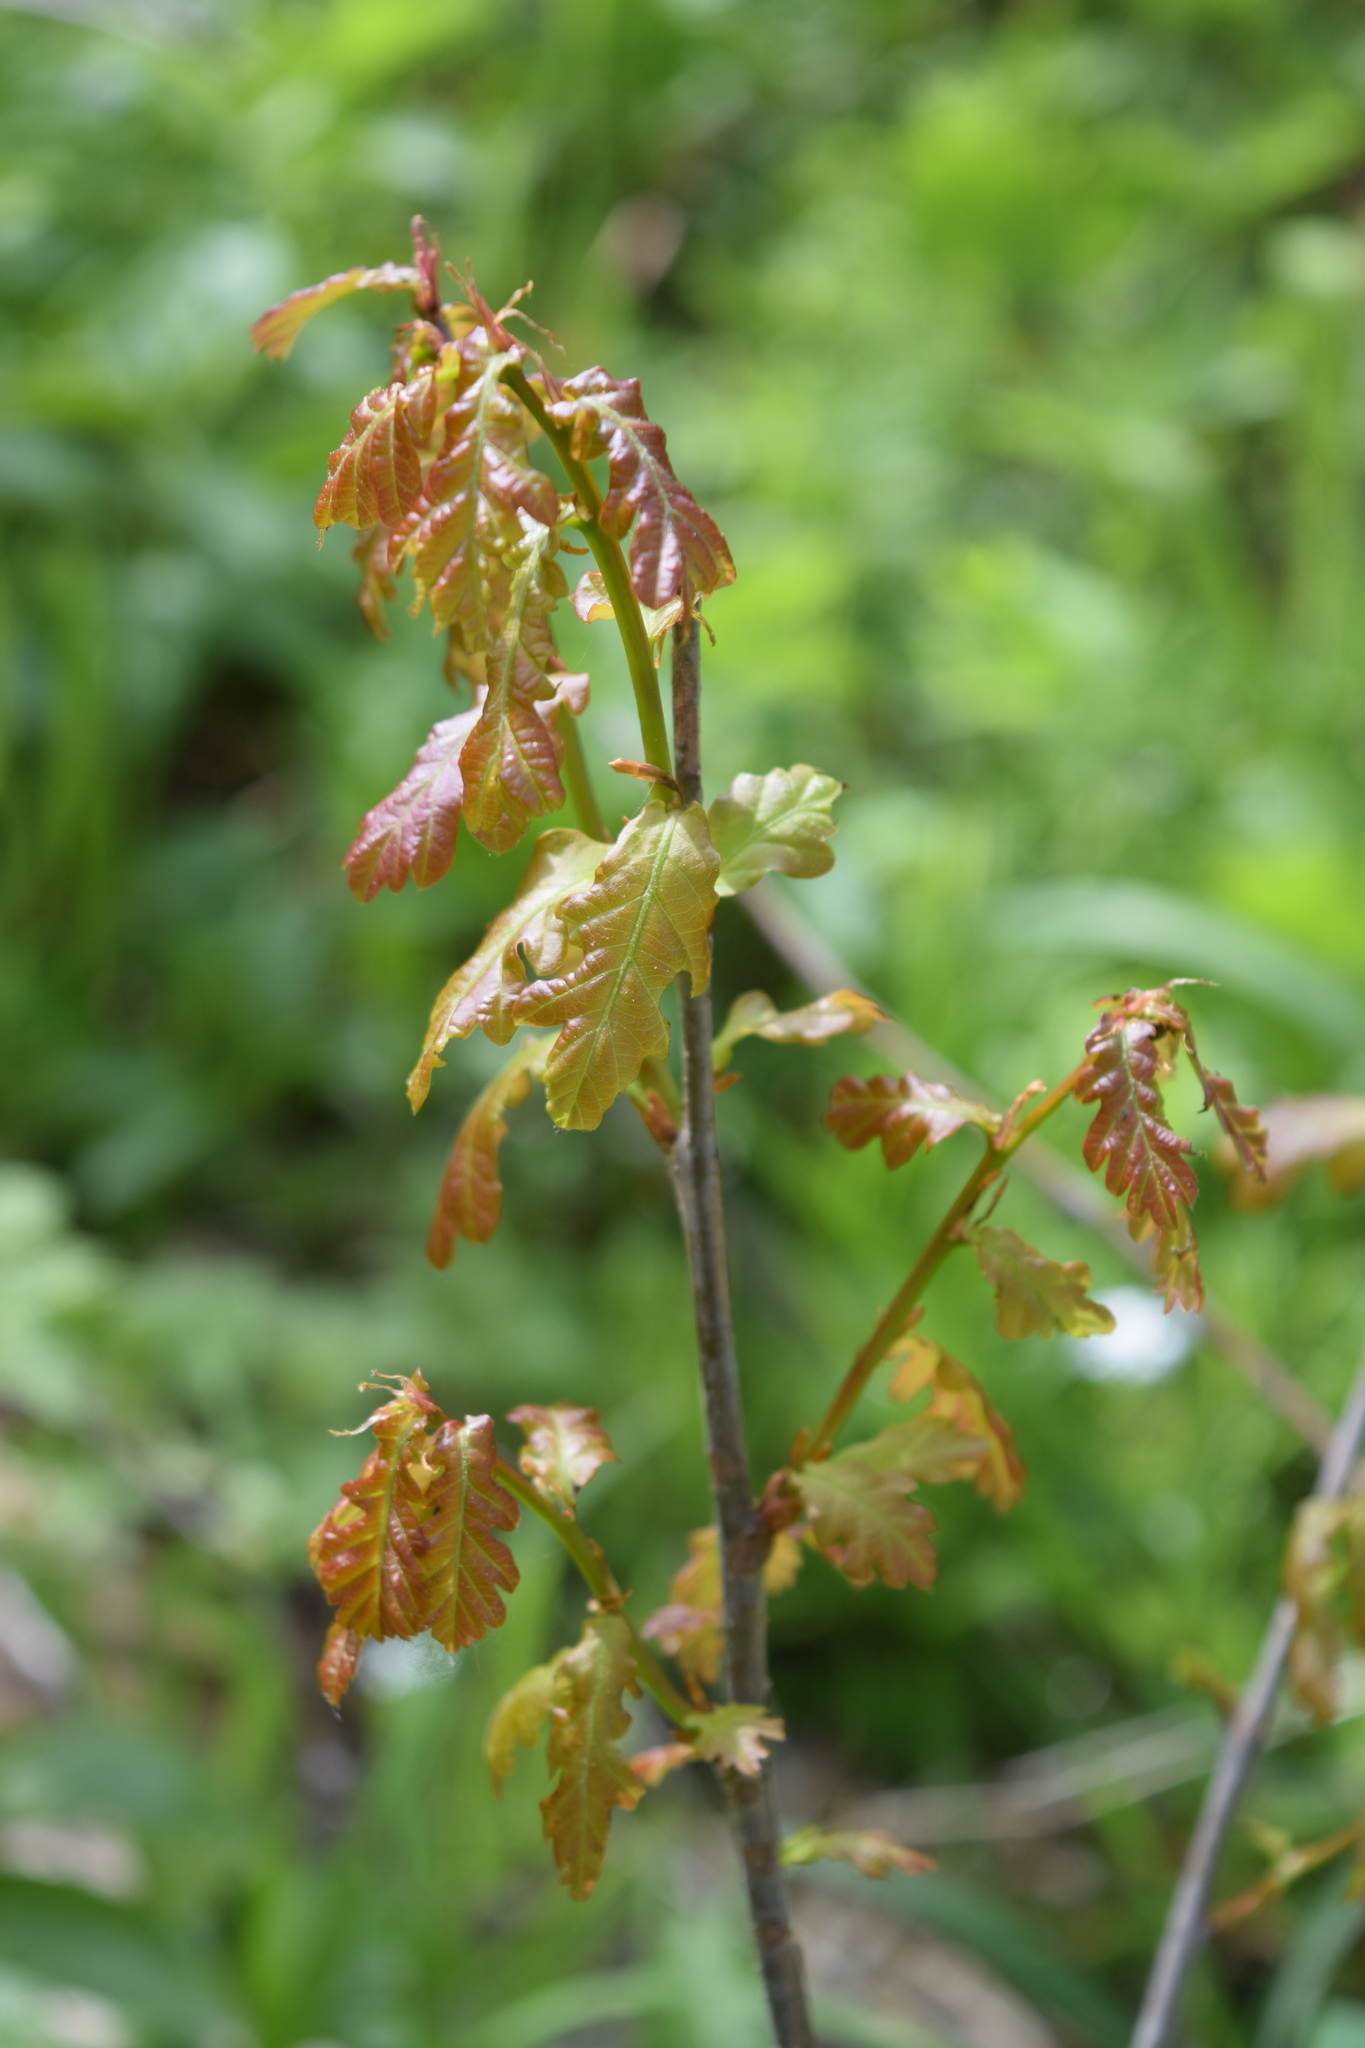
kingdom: Plantae
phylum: Tracheophyta
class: Magnoliopsida
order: Fagales
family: Fagaceae
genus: Quercus
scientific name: Quercus robur
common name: Pedunculate oak
